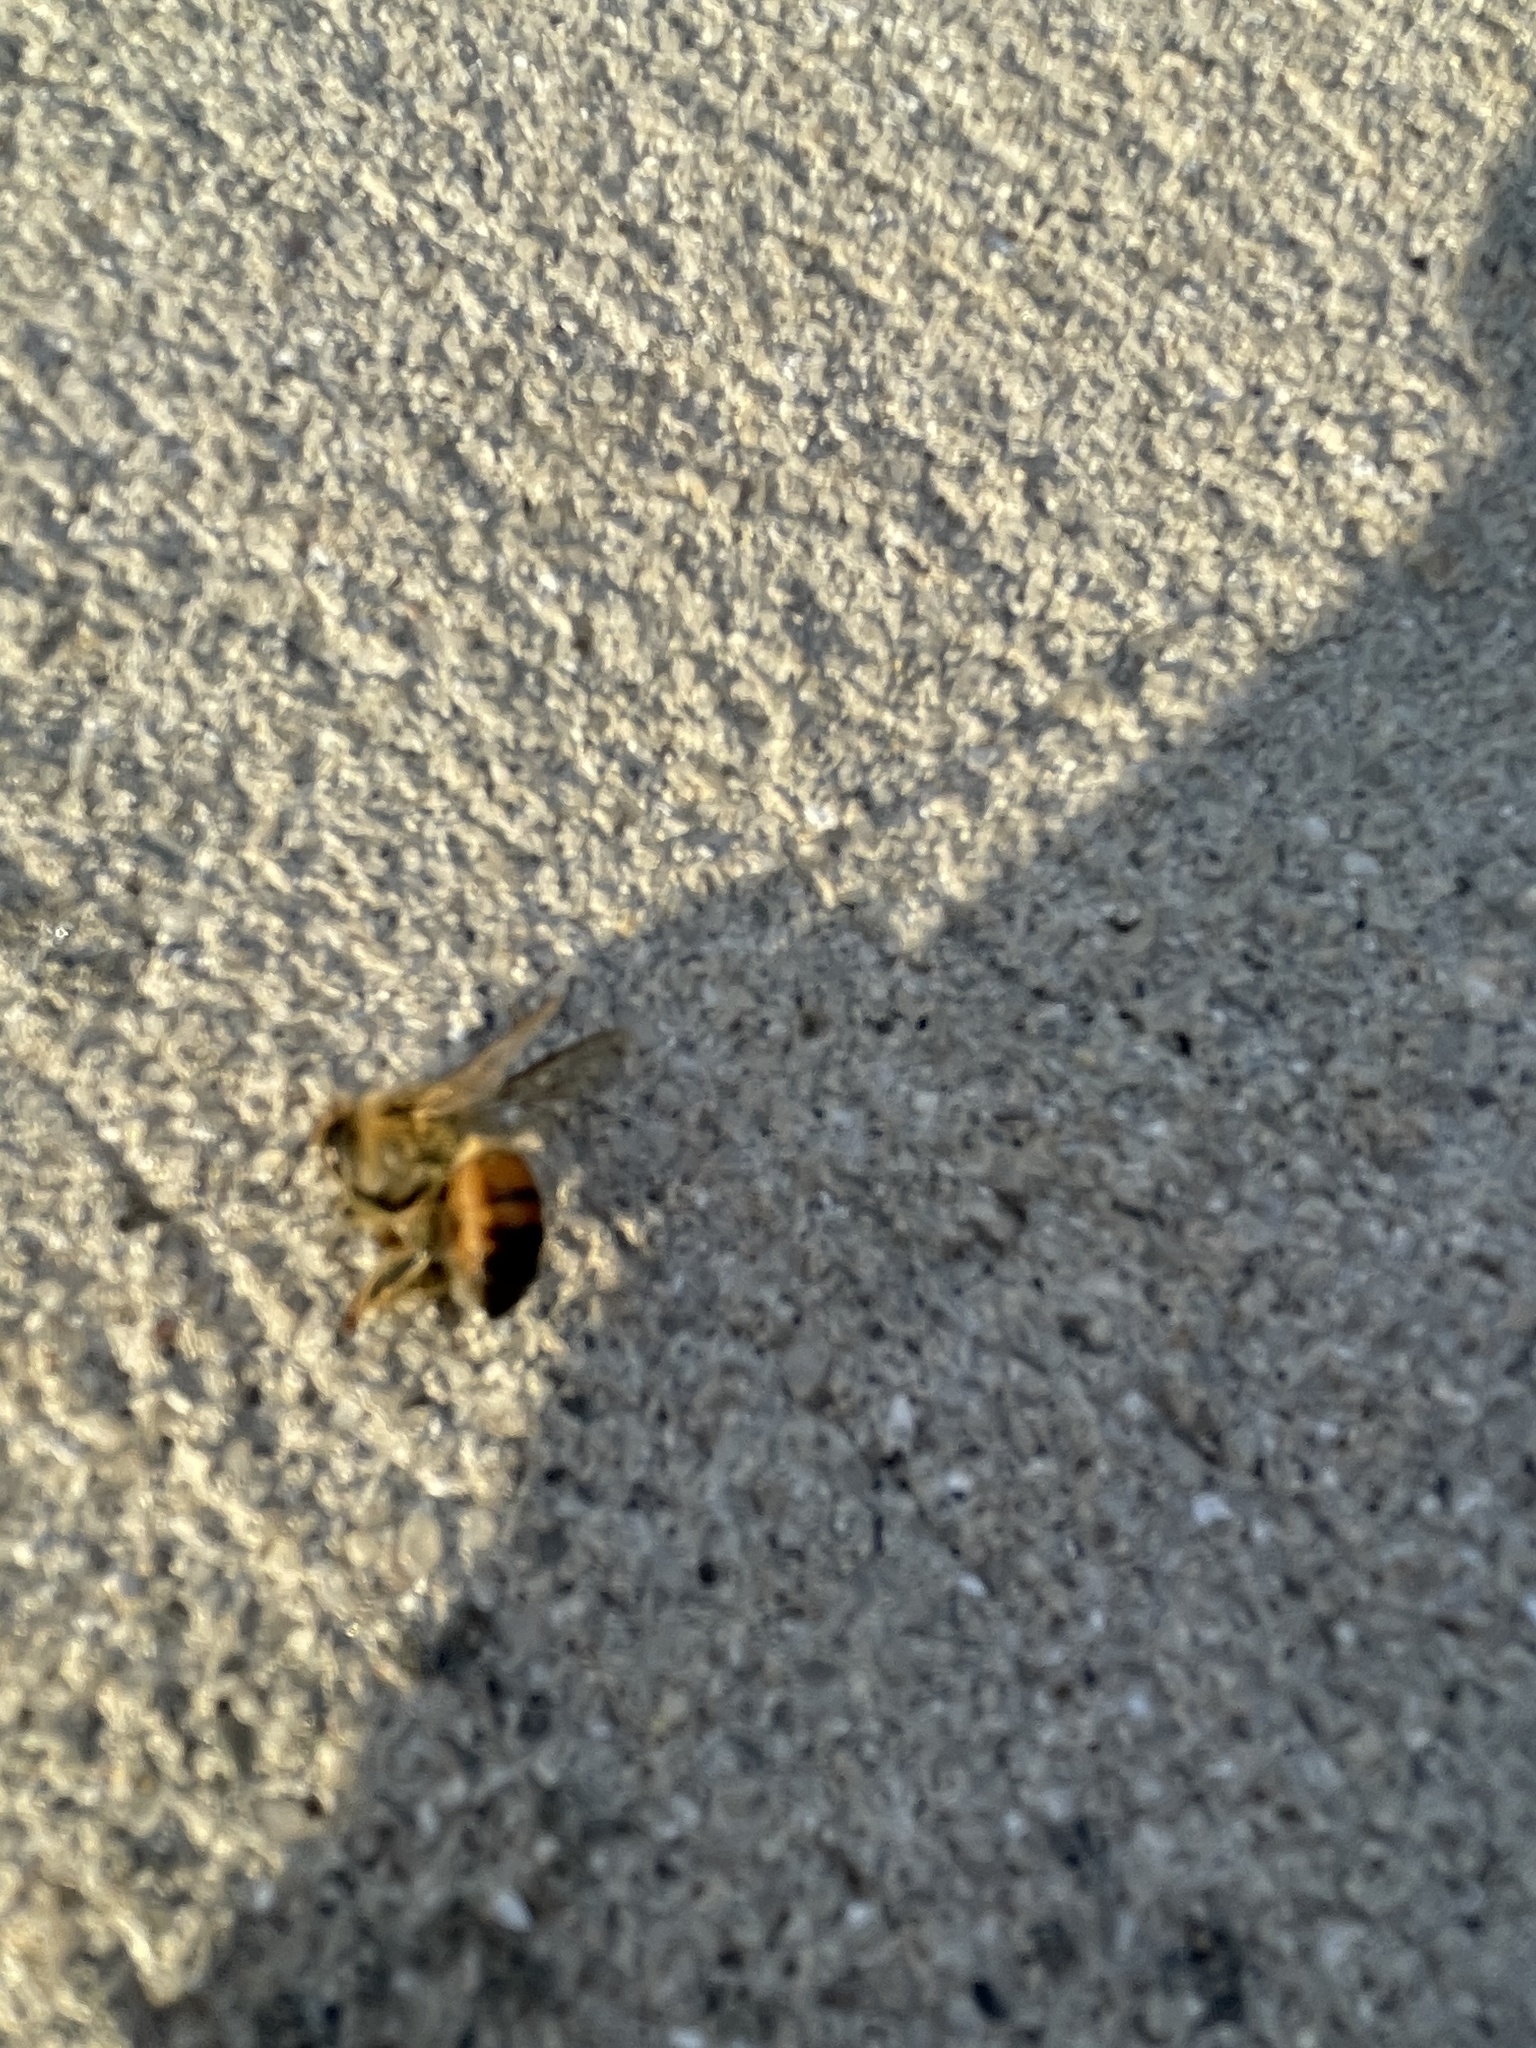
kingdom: Animalia
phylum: Arthropoda
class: Insecta
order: Hymenoptera
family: Apidae
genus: Apis
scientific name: Apis mellifera
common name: Honey bee
